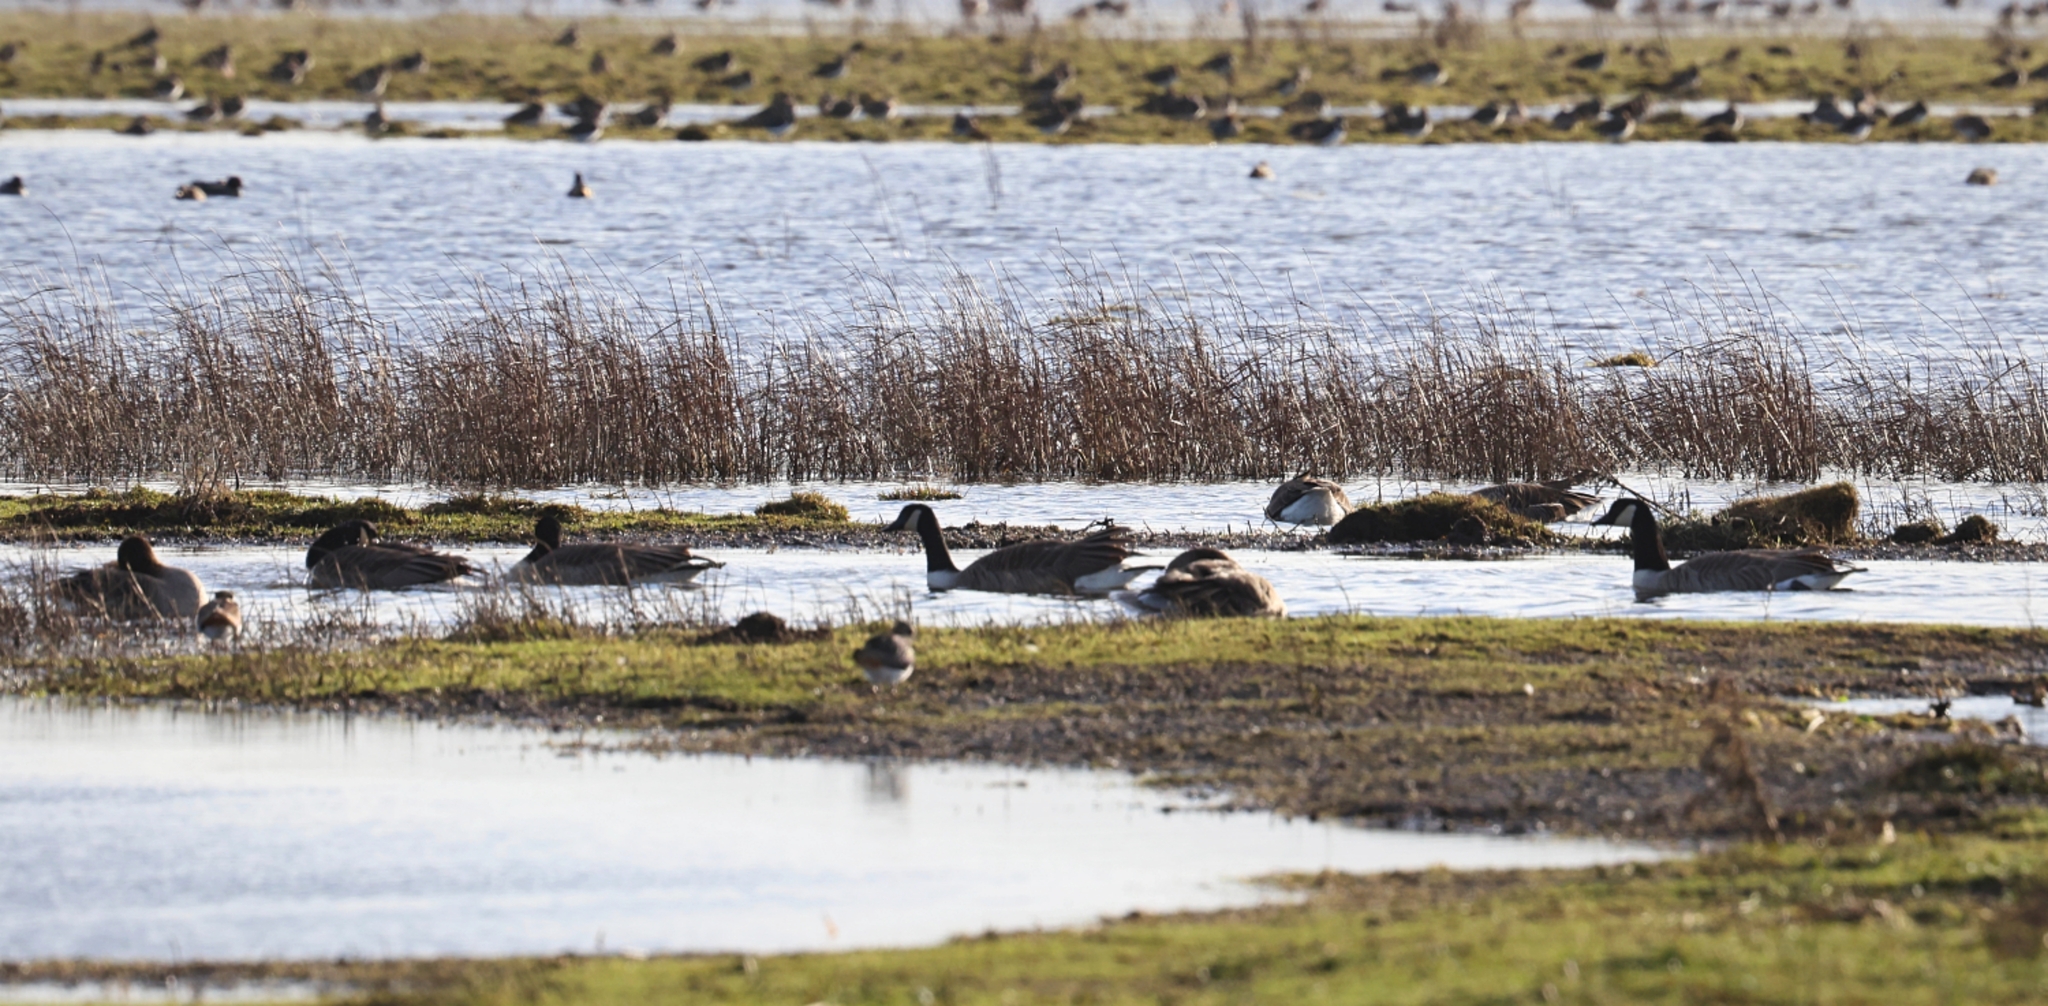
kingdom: Animalia
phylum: Chordata
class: Aves
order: Anseriformes
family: Anatidae
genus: Branta
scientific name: Branta canadensis
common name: Canada goose
